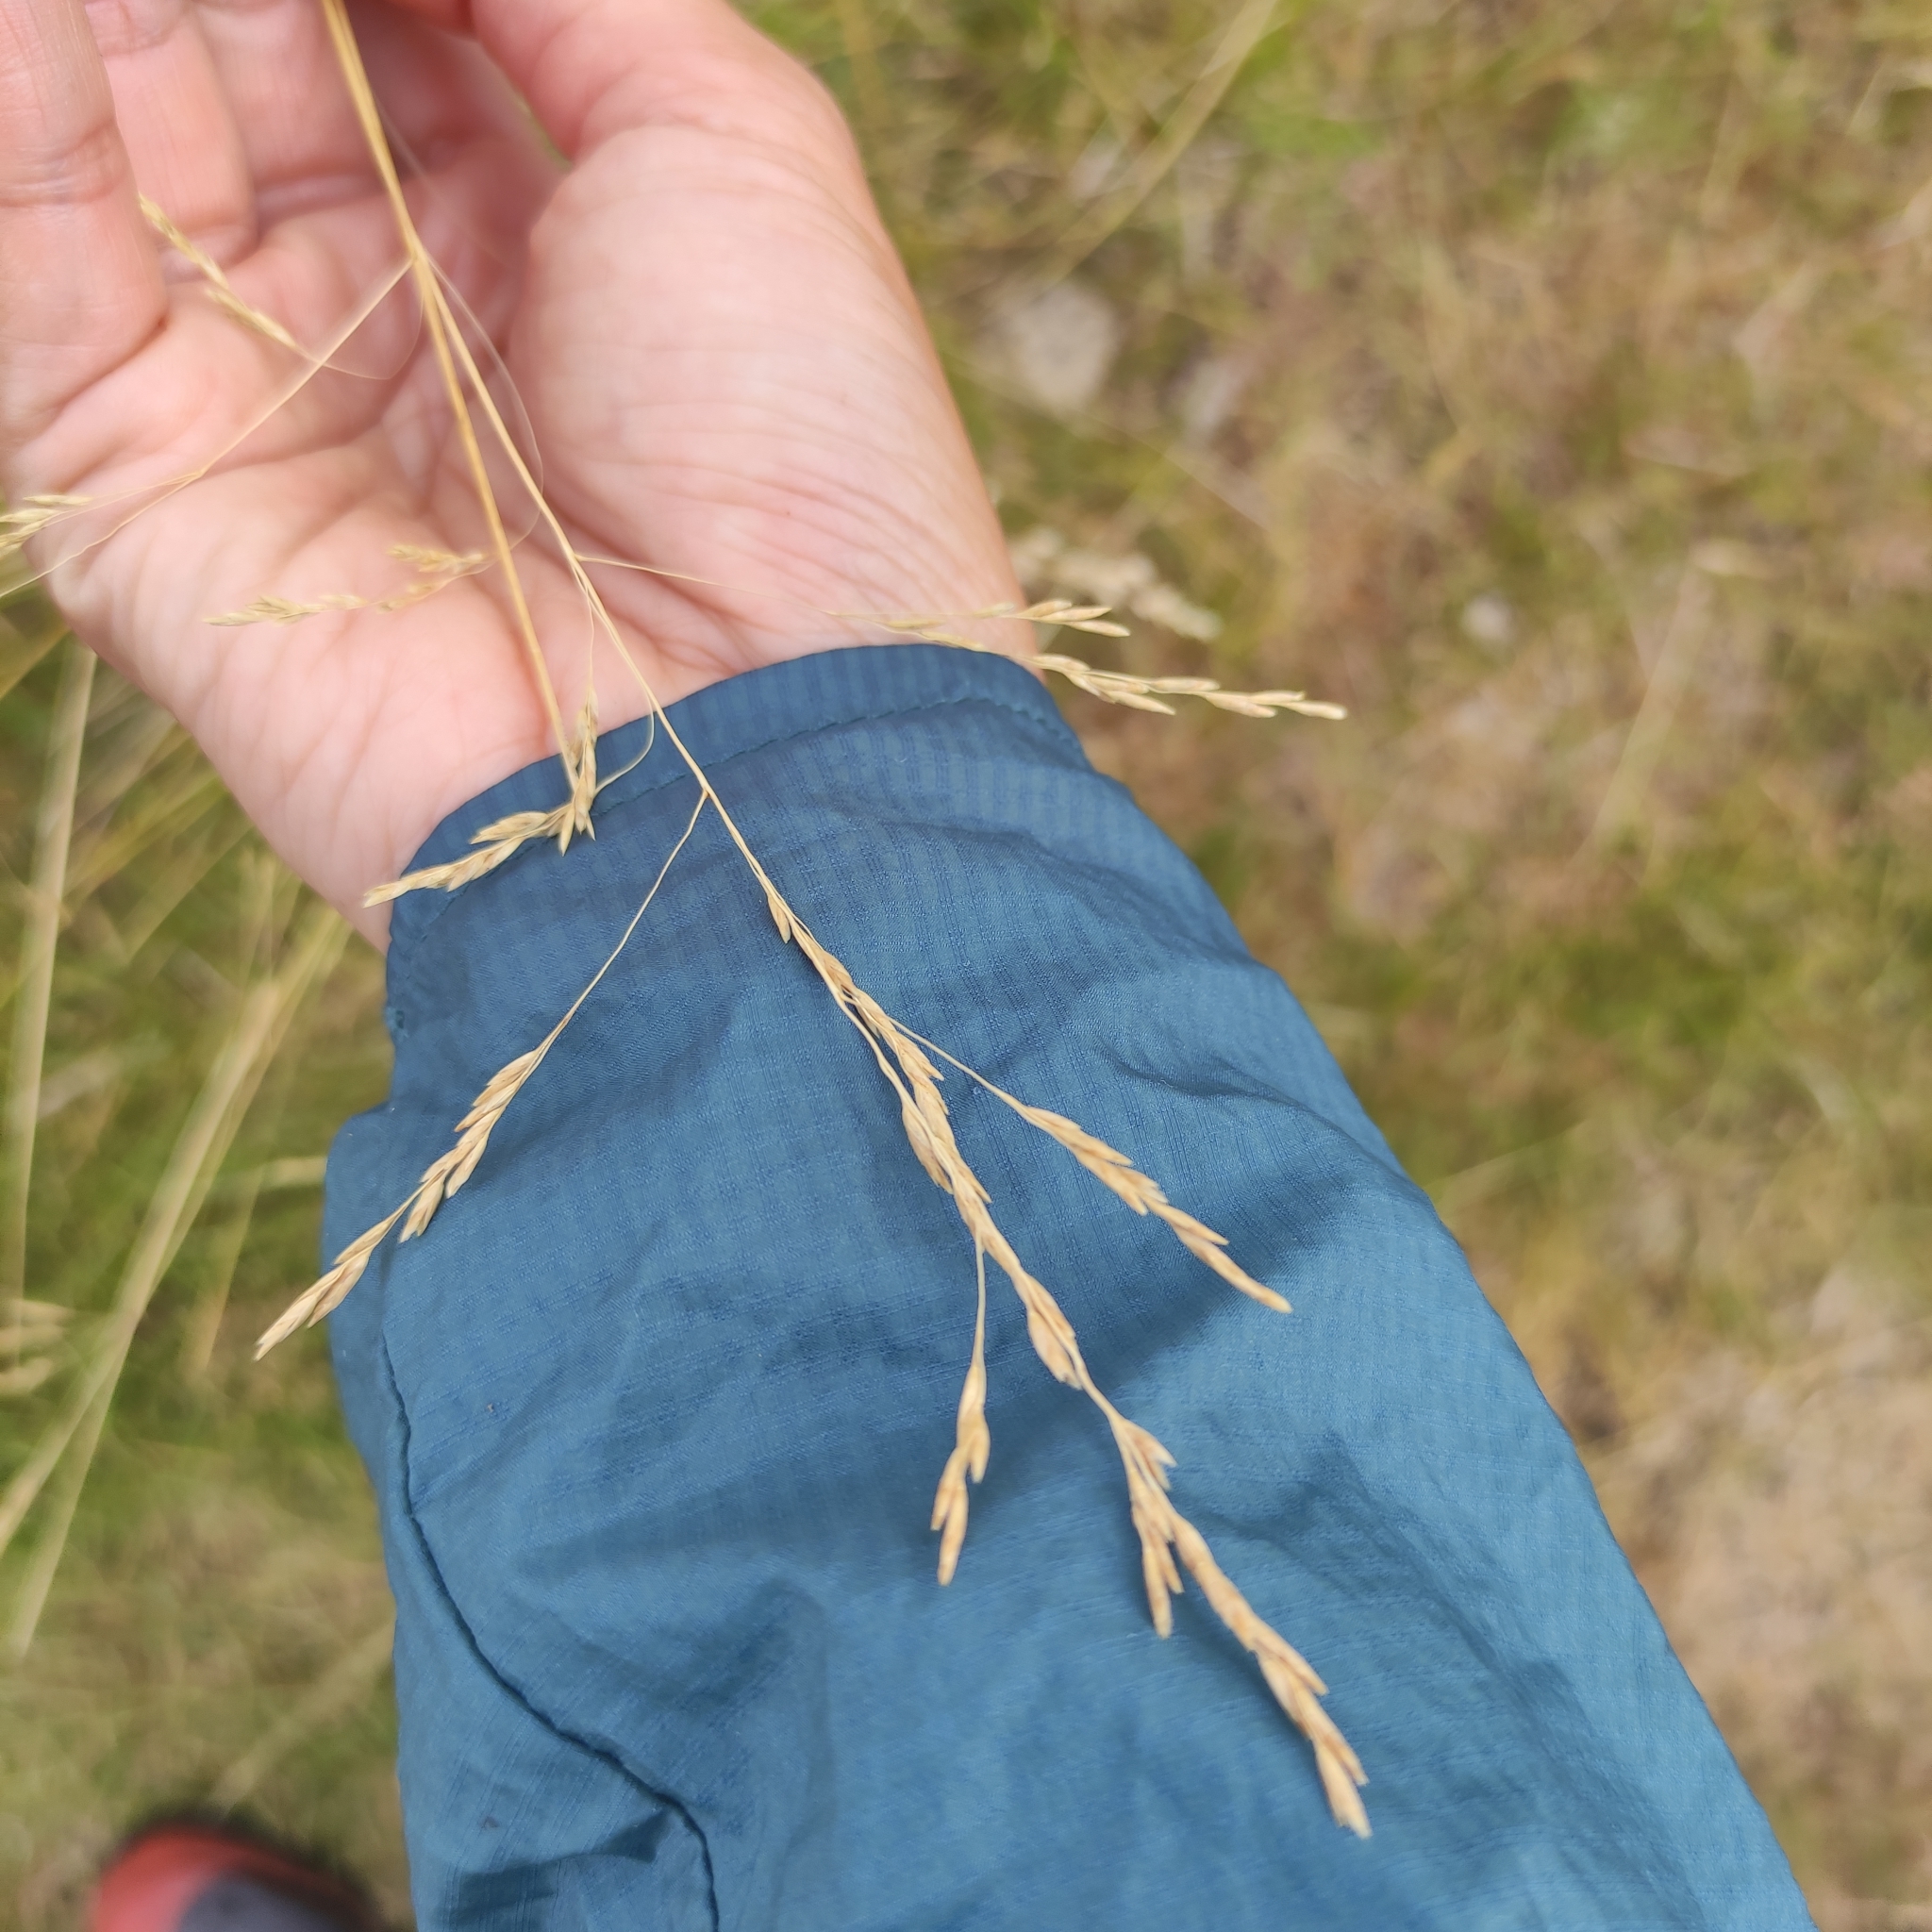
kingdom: Plantae
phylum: Tracheophyta
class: Liliopsida
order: Poales
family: Poaceae
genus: Poa
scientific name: Poa cita
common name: Silver tussock
